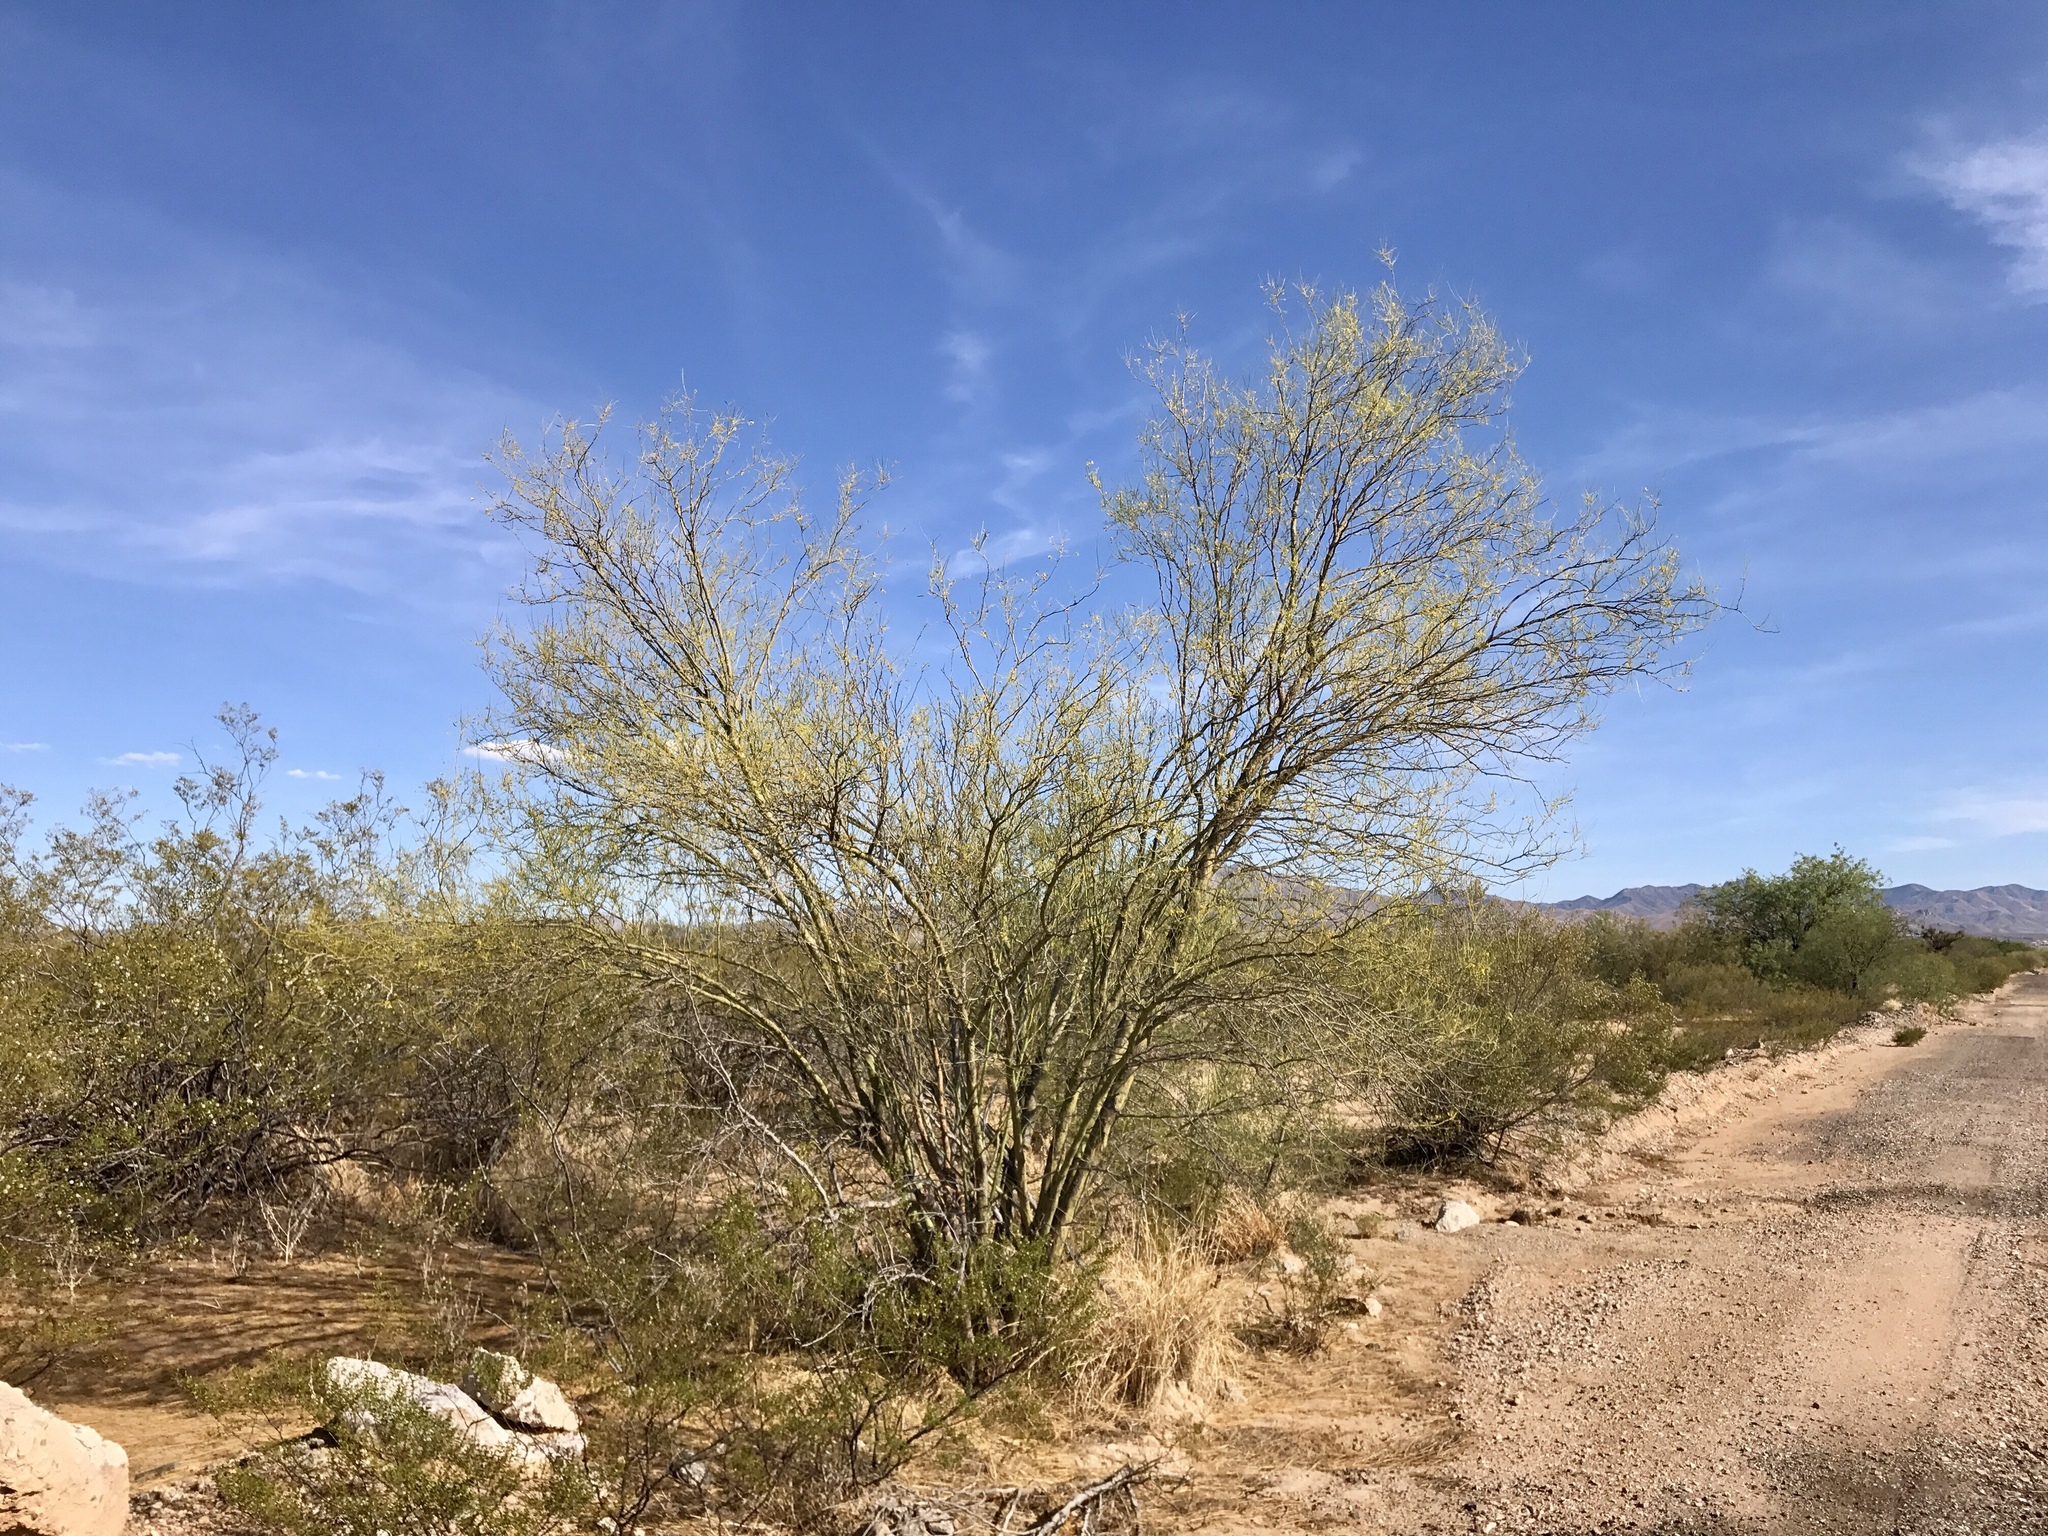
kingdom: Plantae
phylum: Tracheophyta
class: Magnoliopsida
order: Fabales
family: Fabaceae
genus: Parkinsonia
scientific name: Parkinsonia aculeata
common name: Jerusalem thorn
